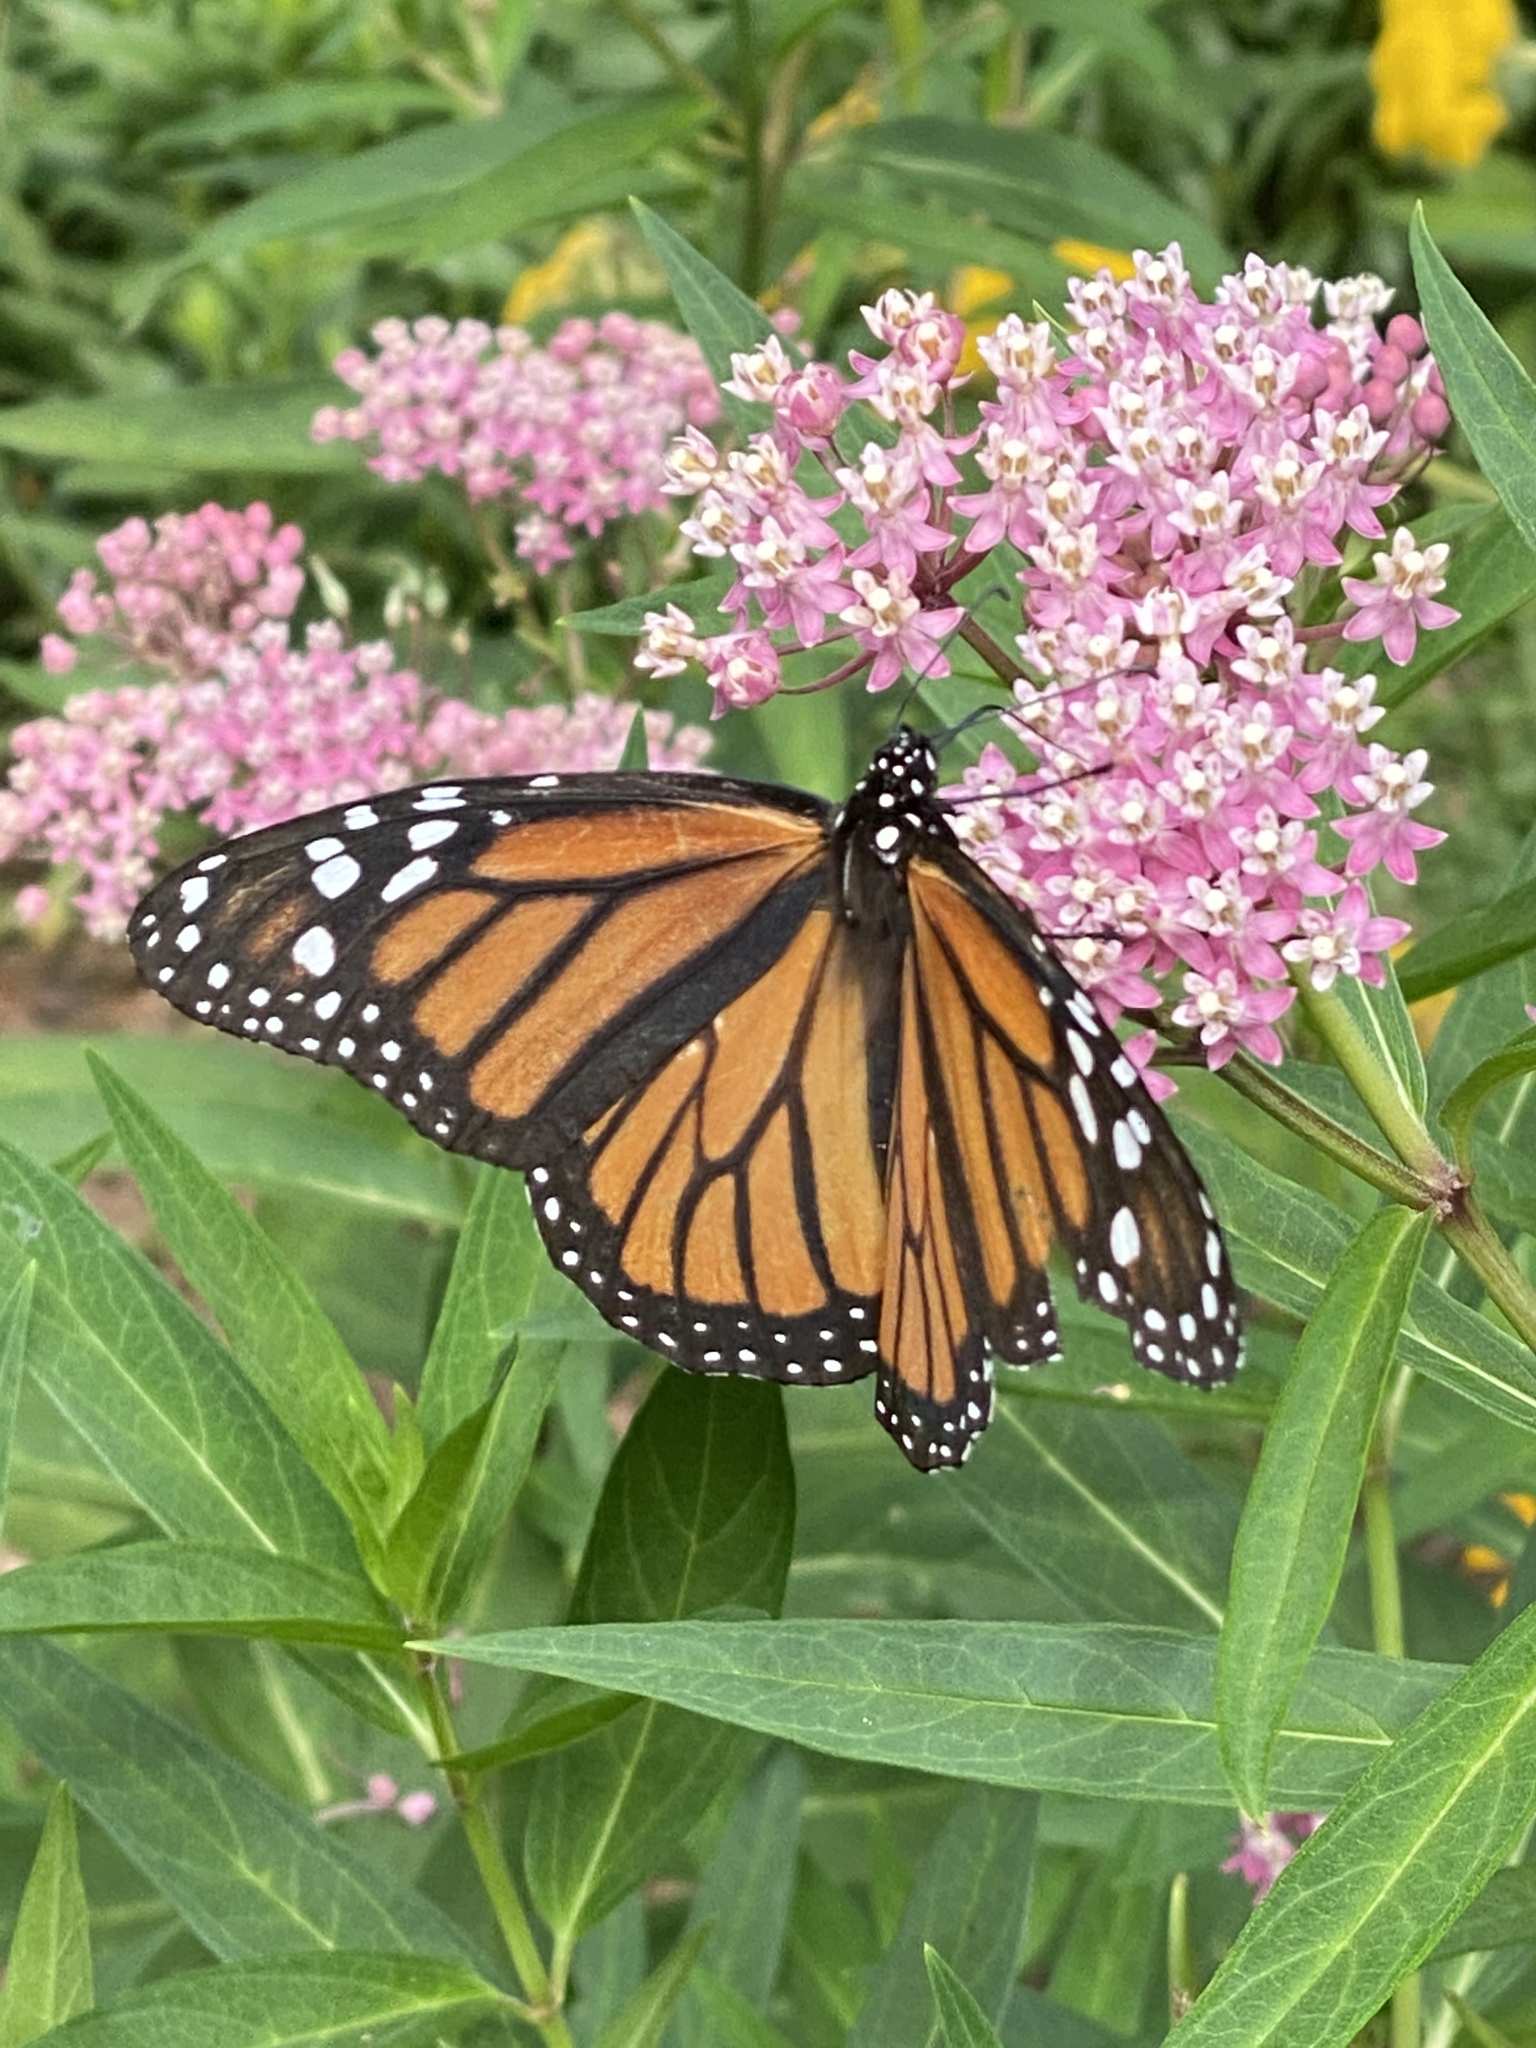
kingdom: Animalia
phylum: Arthropoda
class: Insecta
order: Lepidoptera
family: Nymphalidae
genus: Danaus
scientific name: Danaus plexippus
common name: Monarch
